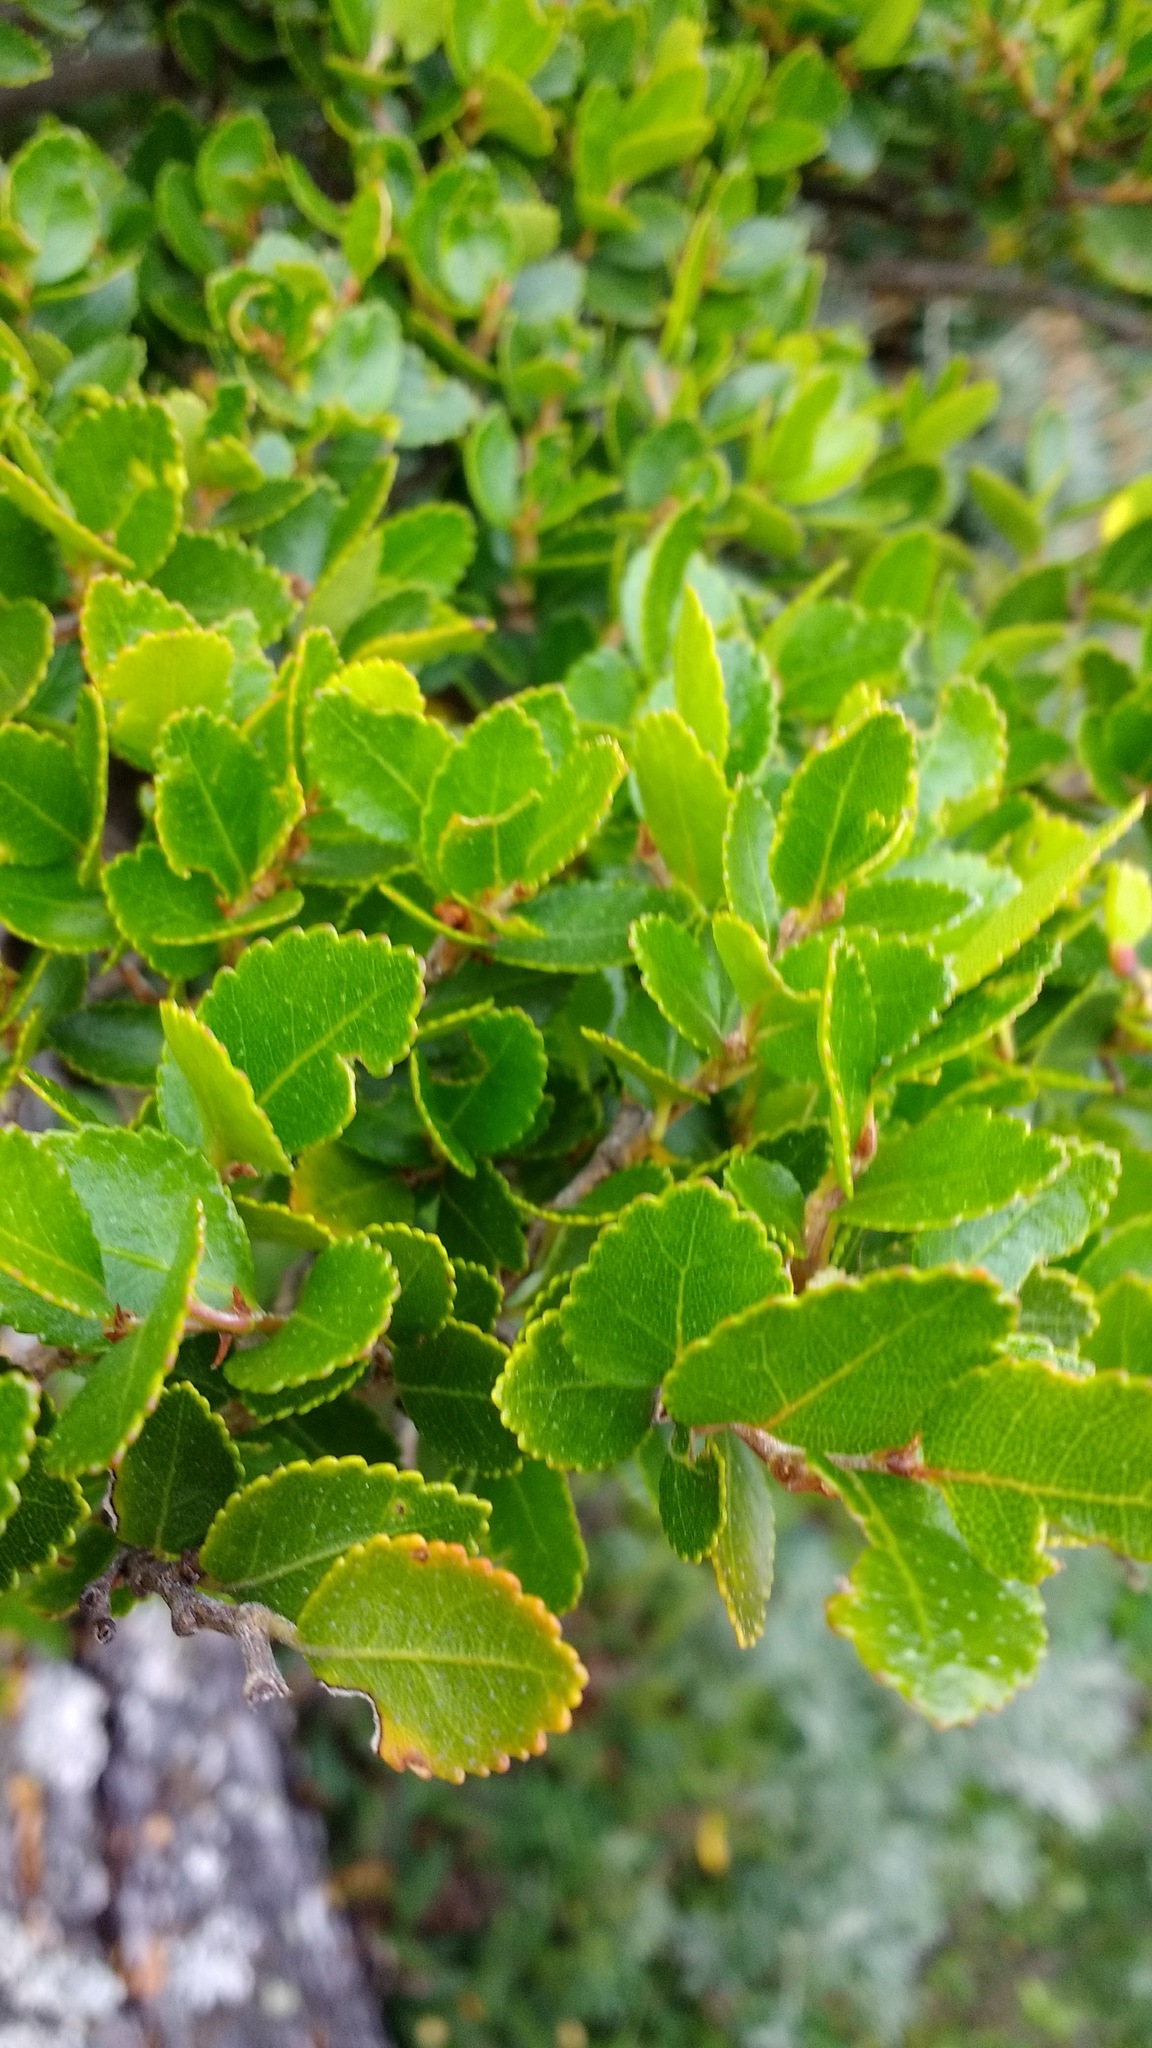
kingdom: Plantae
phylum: Tracheophyta
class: Magnoliopsida
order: Fagales
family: Nothofagaceae
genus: Nothofagus
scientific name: Nothofagus betuloides
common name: Magellan's beech
